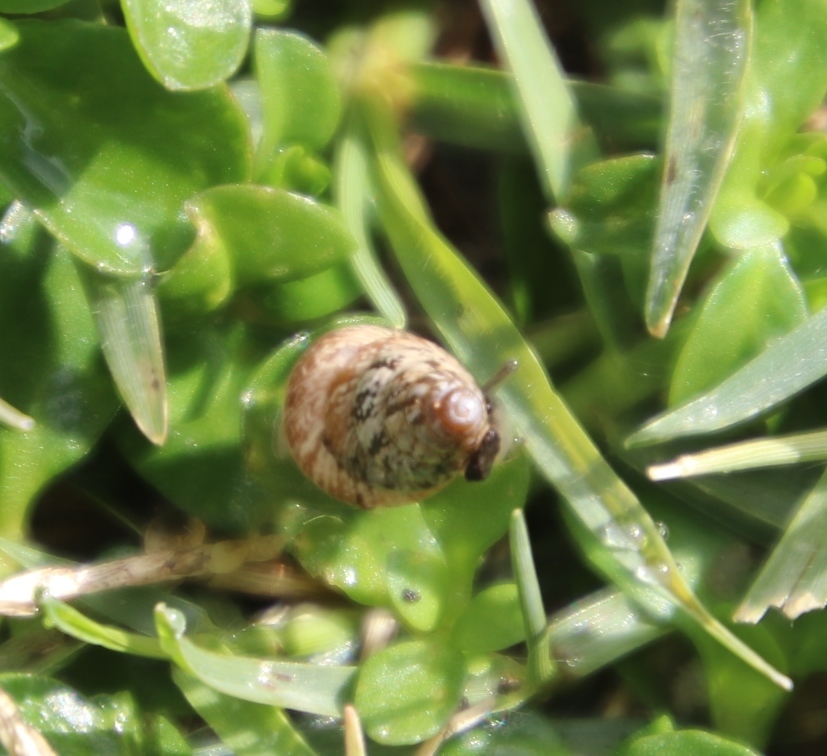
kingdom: Animalia
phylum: Mollusca
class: Gastropoda
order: Stylommatophora
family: Geomitridae
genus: Cochlicella
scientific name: Cochlicella barbara
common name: Potbellied helicellid
